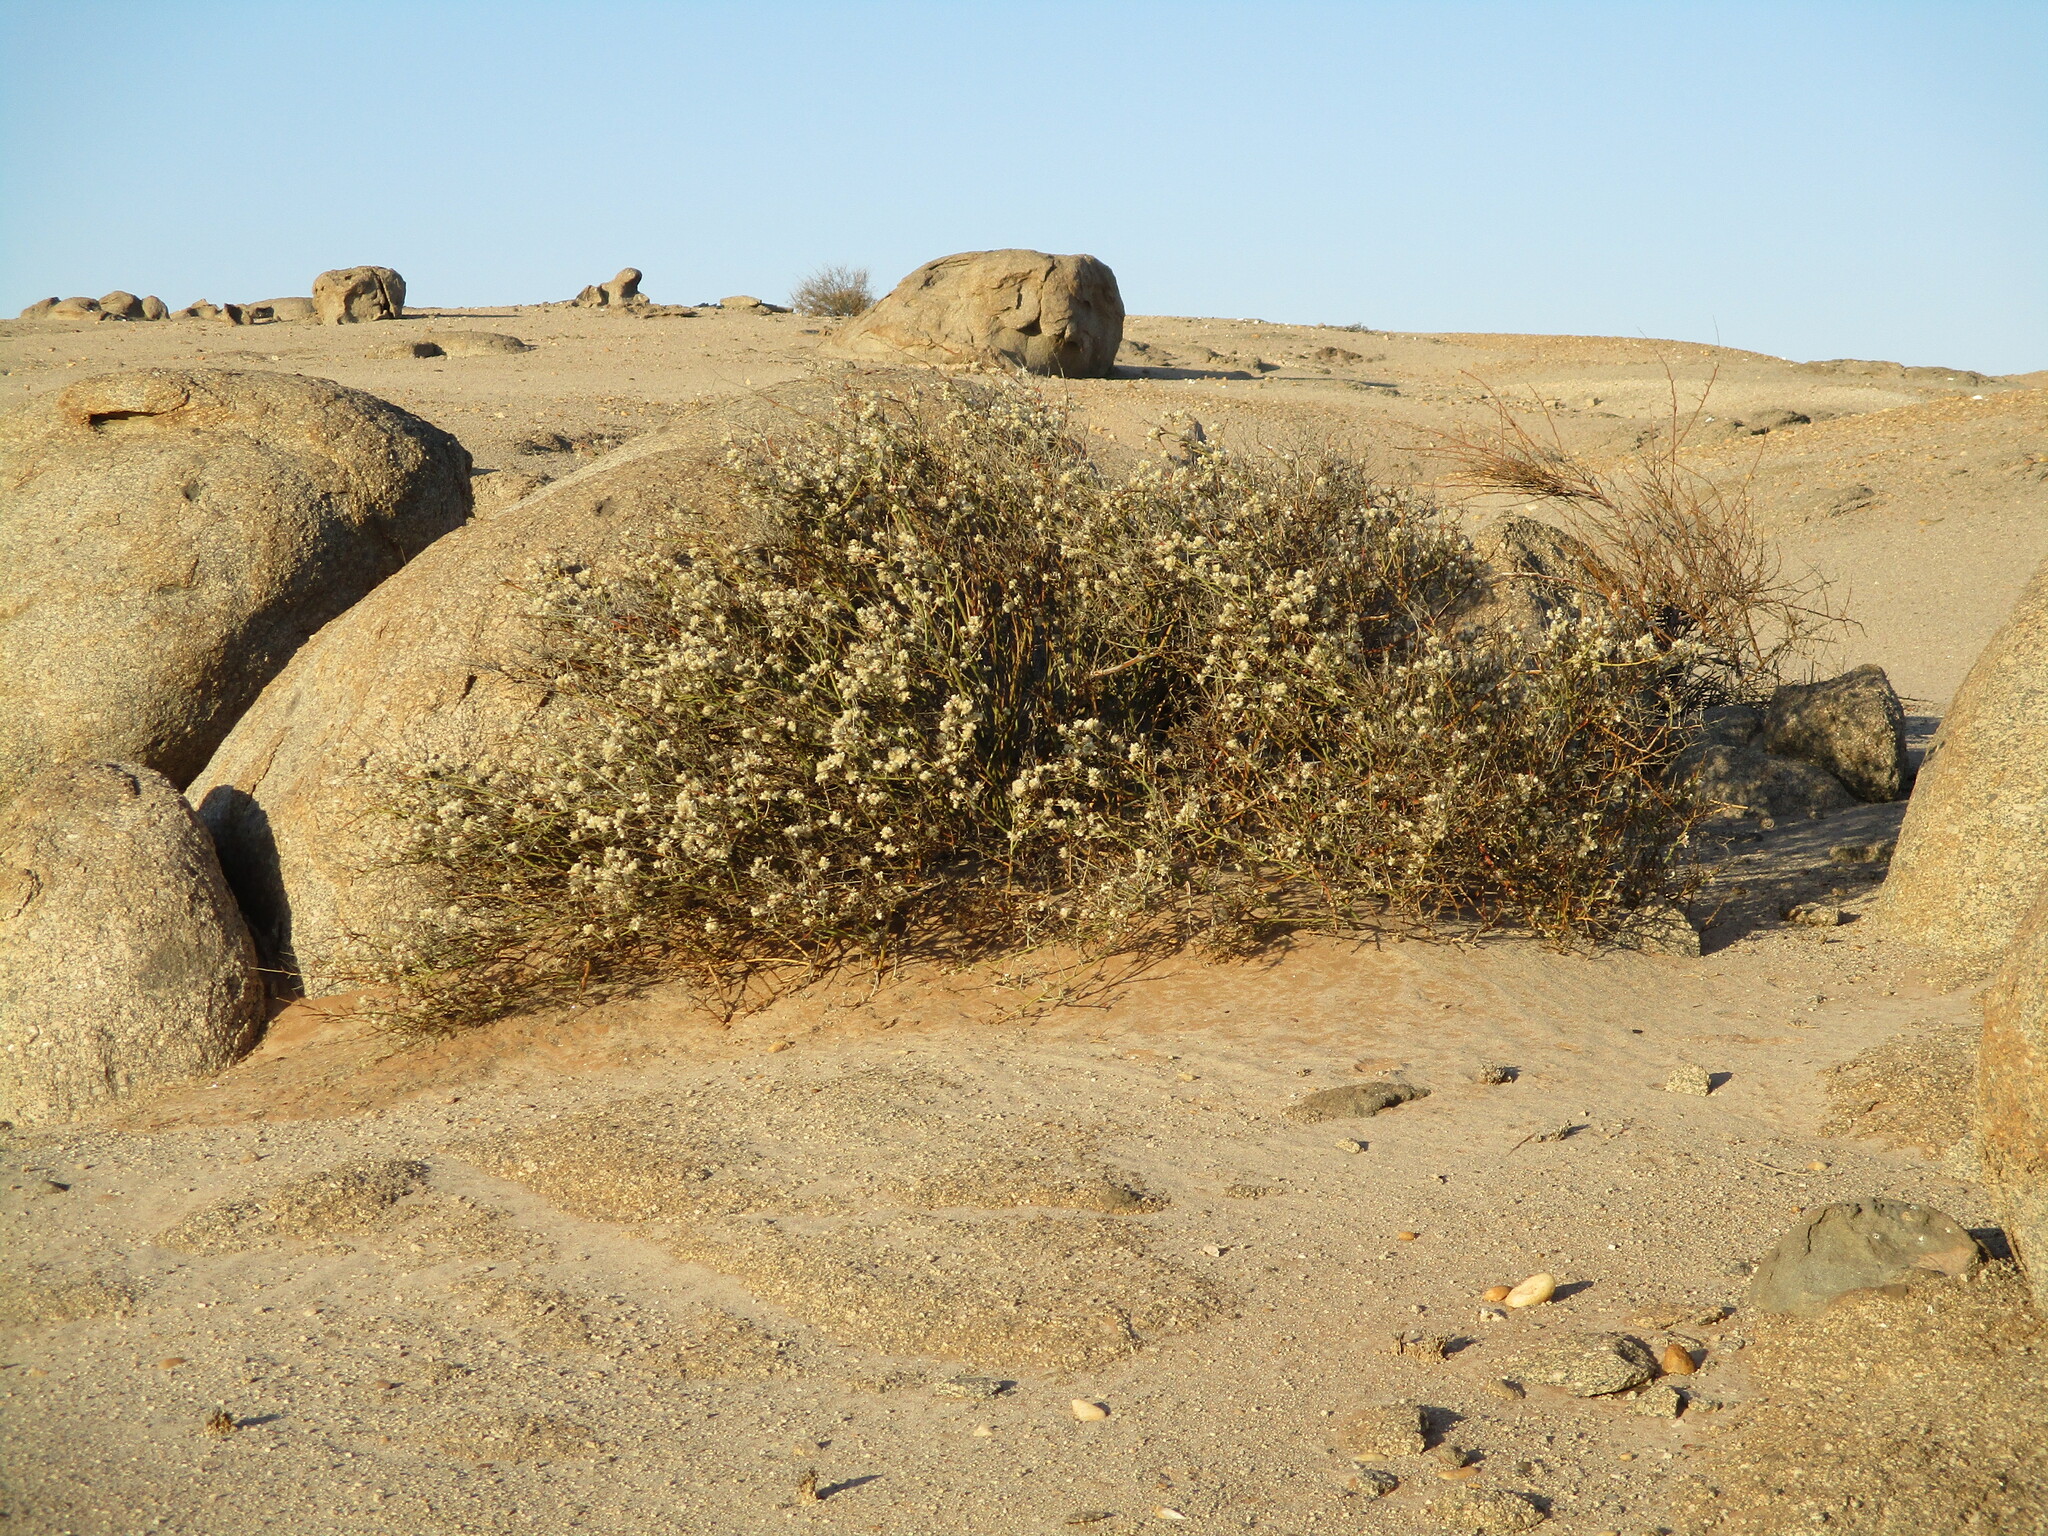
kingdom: Plantae
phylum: Tracheophyta
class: Magnoliopsida
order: Caryophyllales
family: Amaranthaceae
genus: Calicorema
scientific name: Calicorema capitata
